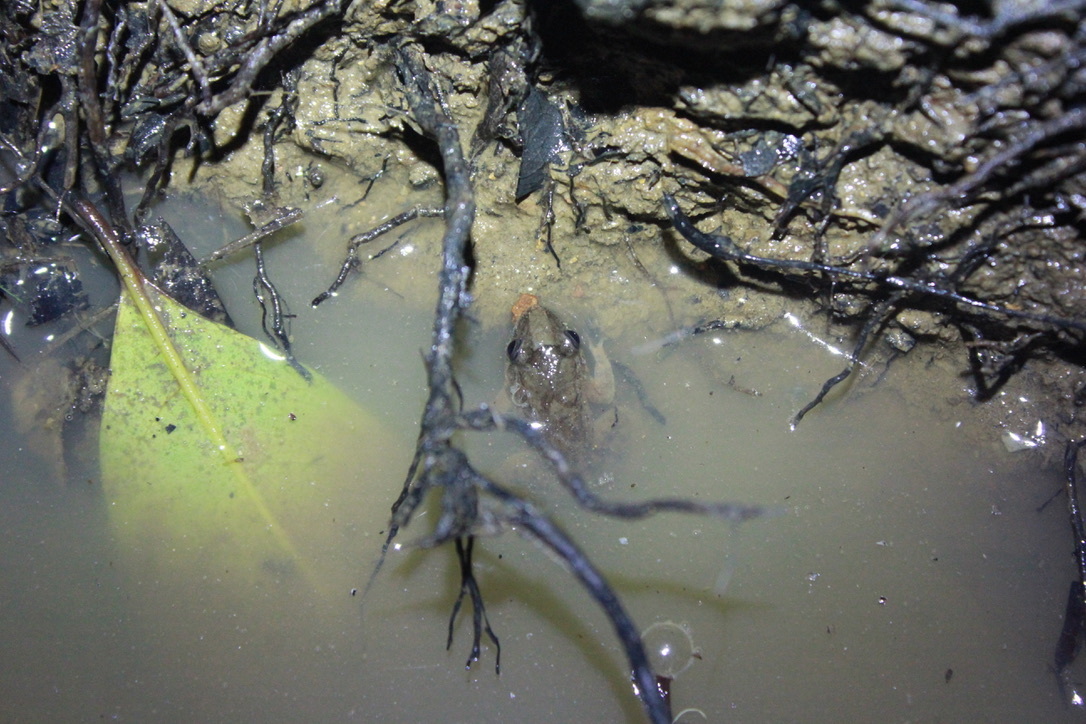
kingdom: Animalia
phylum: Chordata
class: Amphibia
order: Anura
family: Leptodactylidae
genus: Leptodactylus
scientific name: Leptodactylus validus
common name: Smooth-skinned ditch frog
